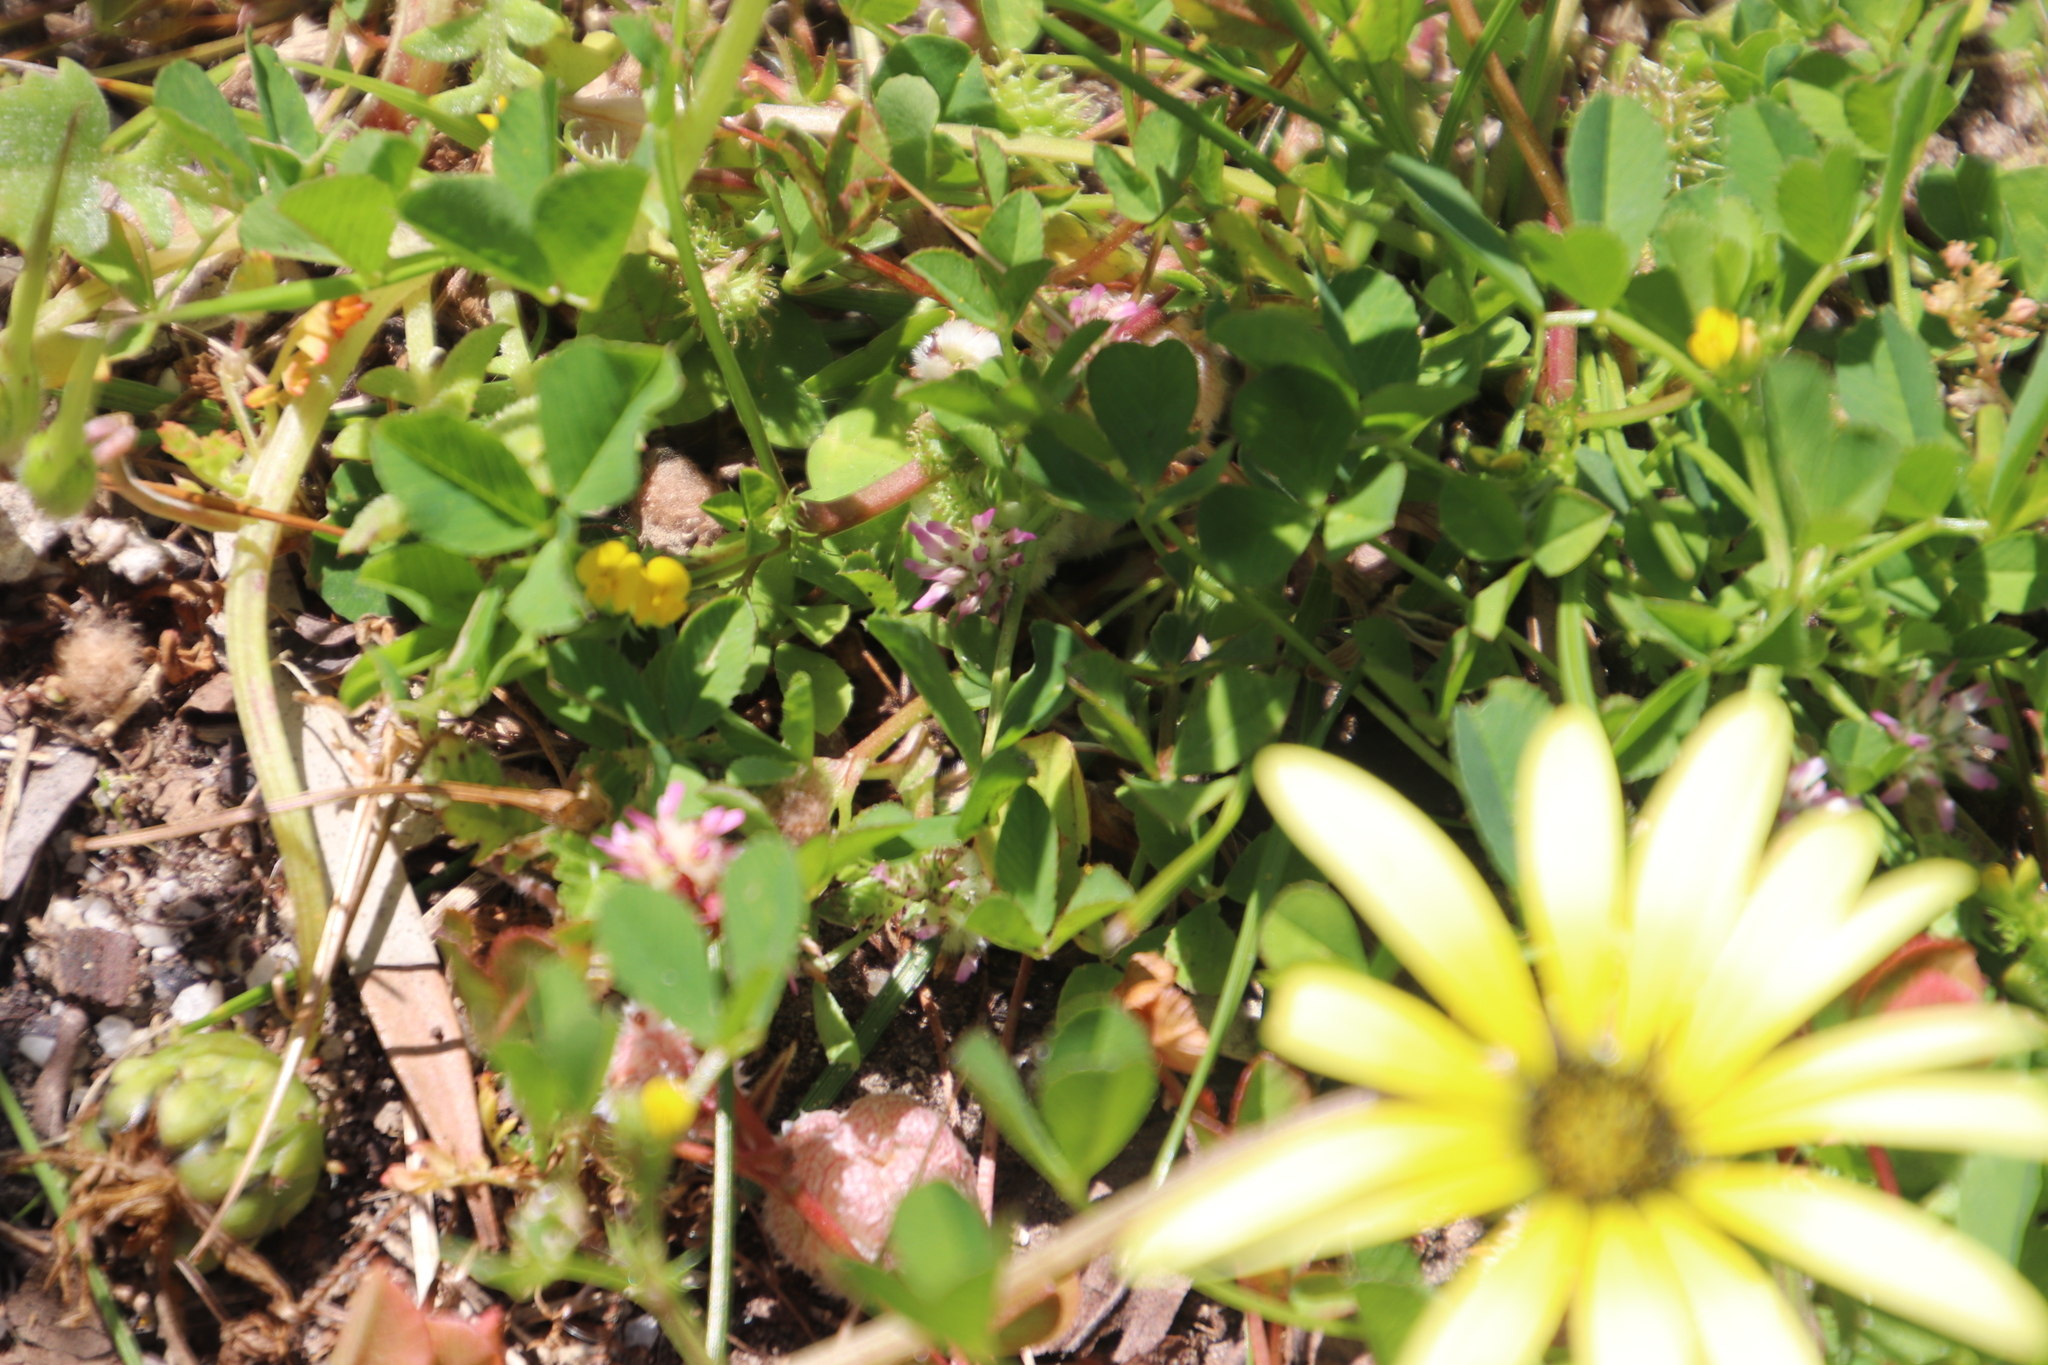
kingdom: Plantae
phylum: Tracheophyta
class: Magnoliopsida
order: Fabales
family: Fabaceae
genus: Medicago
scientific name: Medicago polymorpha
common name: Burclover
